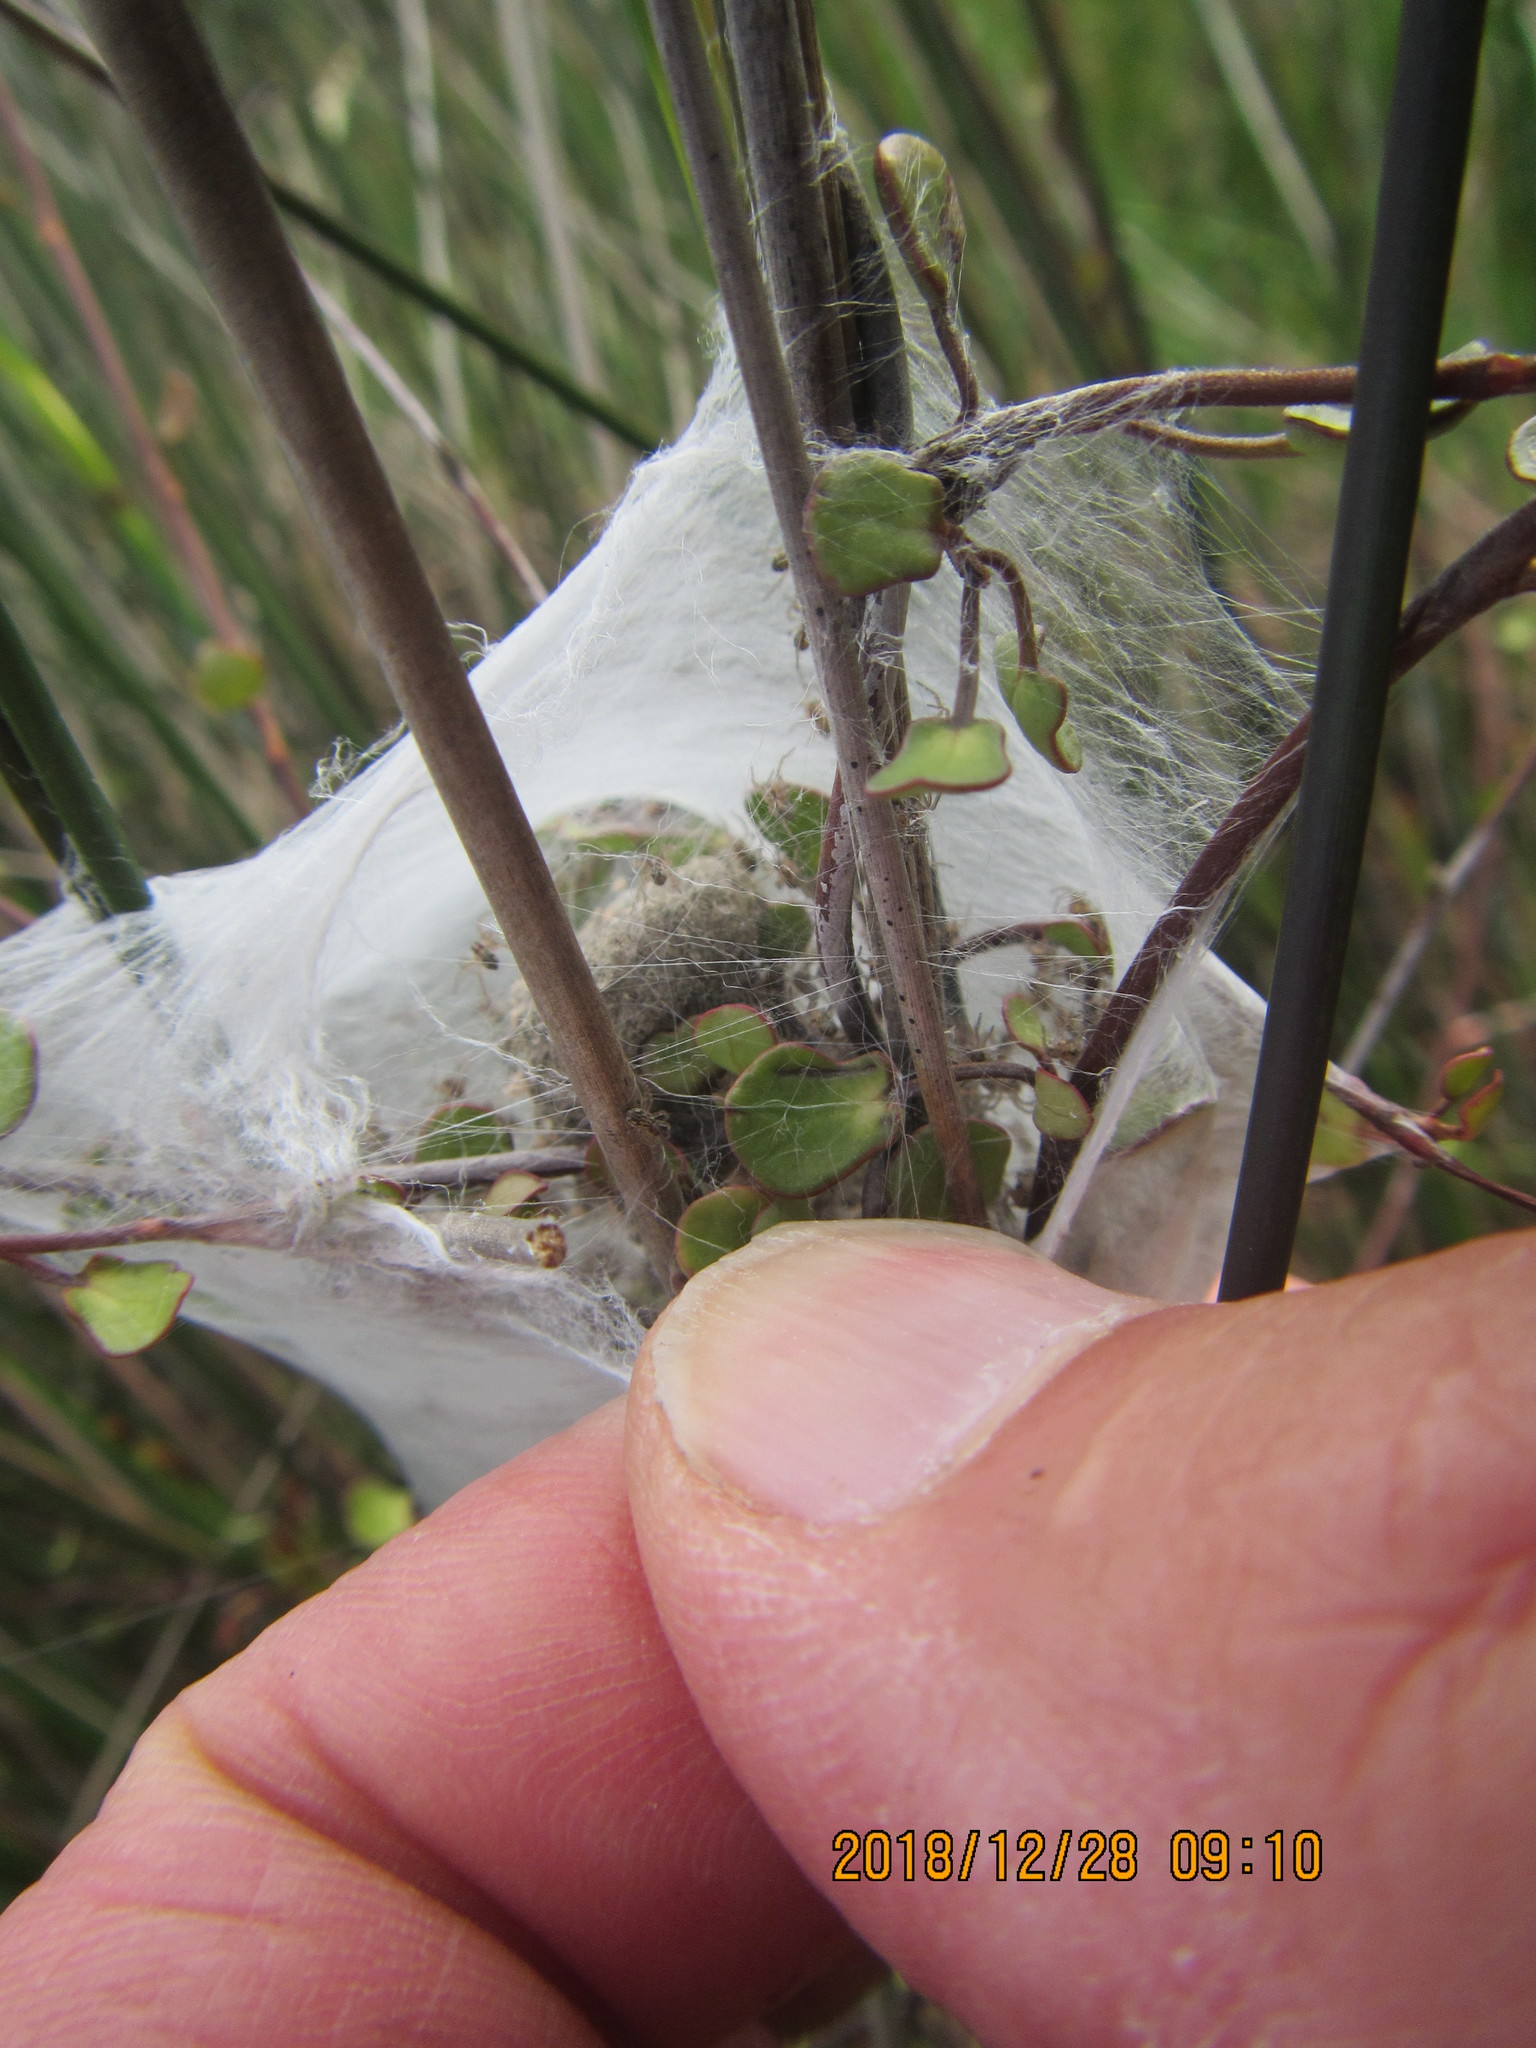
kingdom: Animalia
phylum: Arthropoda
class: Arachnida
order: Araneae
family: Pisauridae
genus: Dolomedes
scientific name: Dolomedes minor
